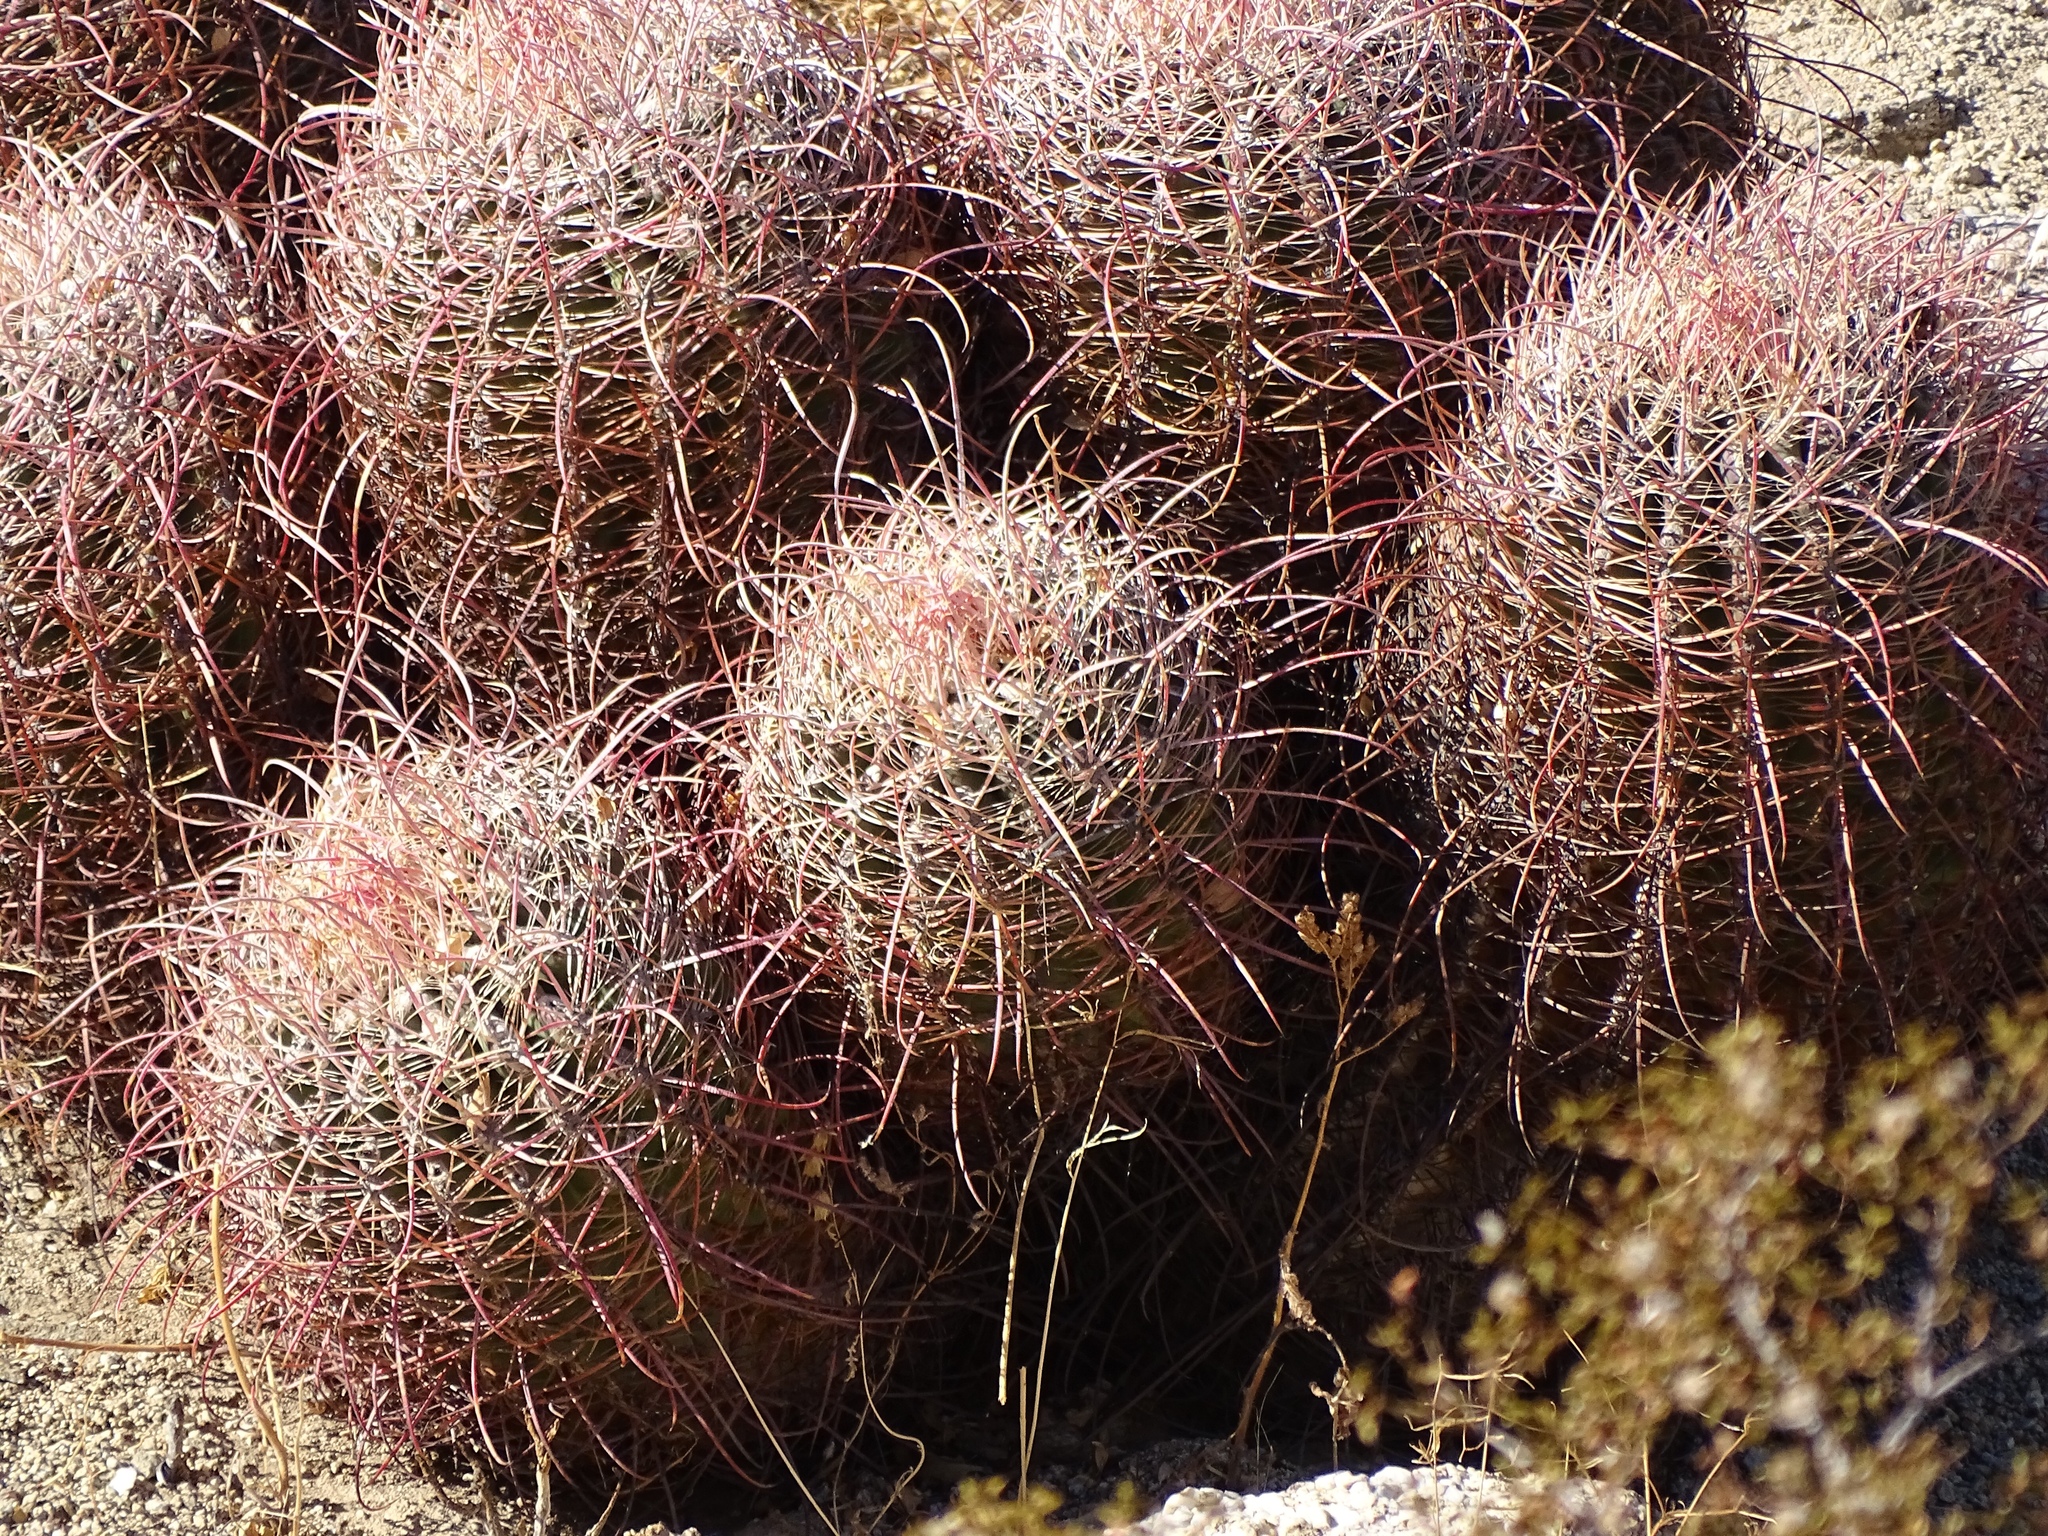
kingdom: Plantae
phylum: Tracheophyta
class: Magnoliopsida
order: Caryophyllales
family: Cactaceae
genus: Ferocactus
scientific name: Ferocactus cylindraceus
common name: California barrel cactus
